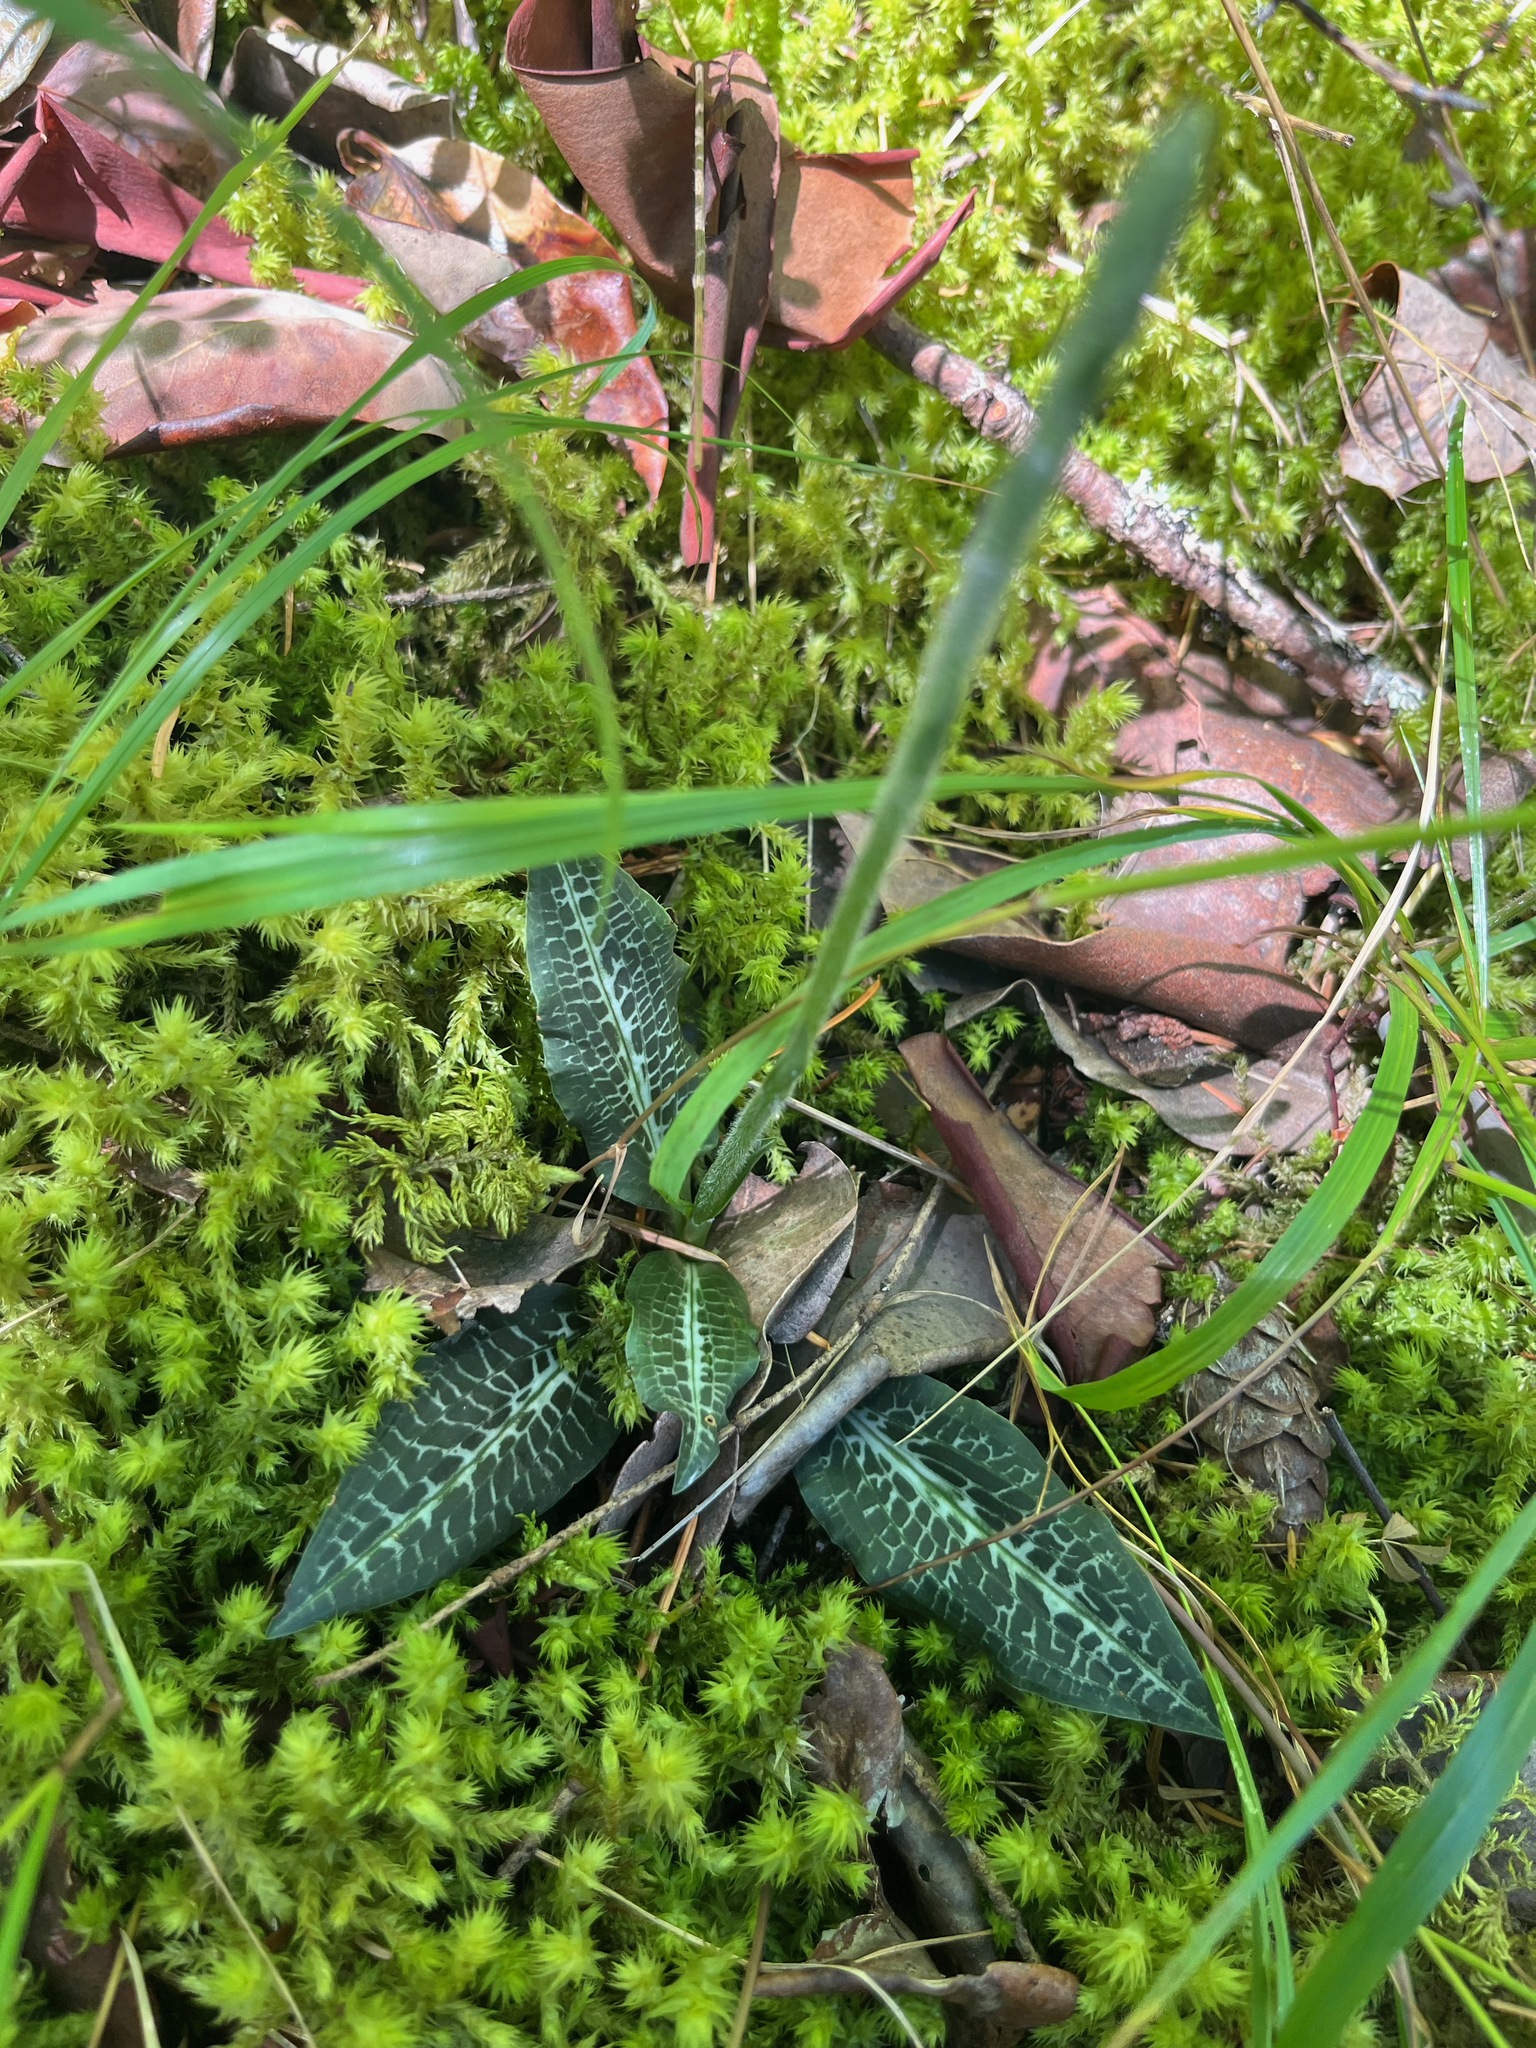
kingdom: Plantae
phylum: Tracheophyta
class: Liliopsida
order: Asparagales
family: Orchidaceae
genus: Goodyera
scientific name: Goodyera oblongifolia
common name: Giant rattlesnake-plantain
